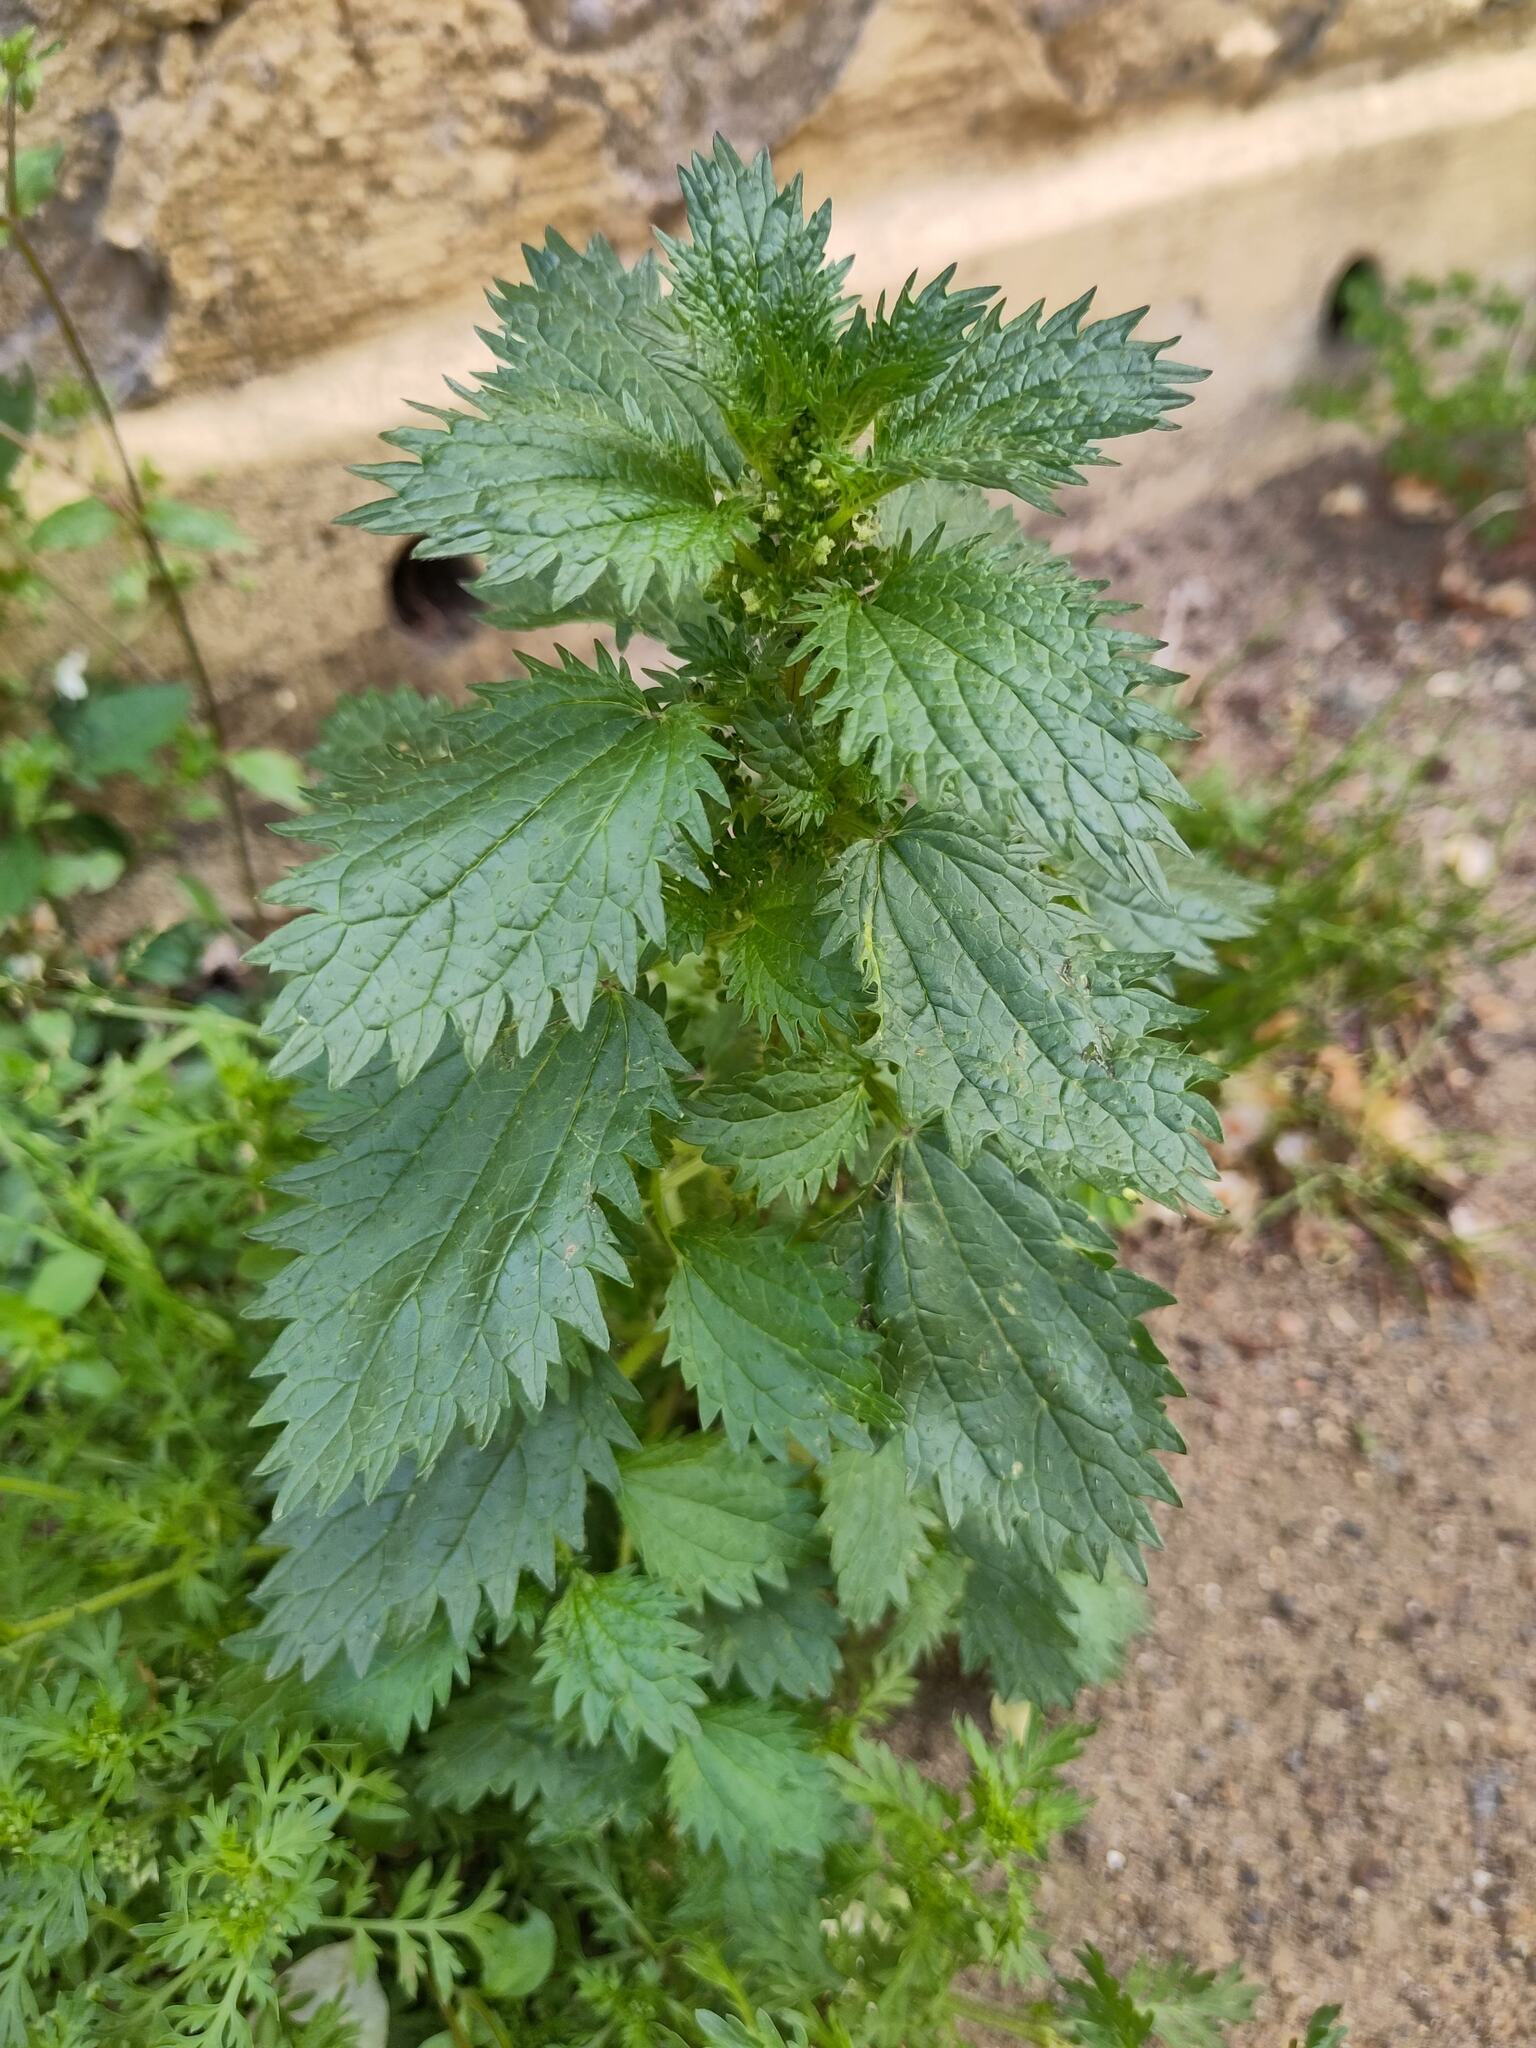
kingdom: Plantae
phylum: Tracheophyta
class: Magnoliopsida
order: Rosales
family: Urticaceae
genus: Urtica
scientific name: Urtica urens
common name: Dwarf nettle
